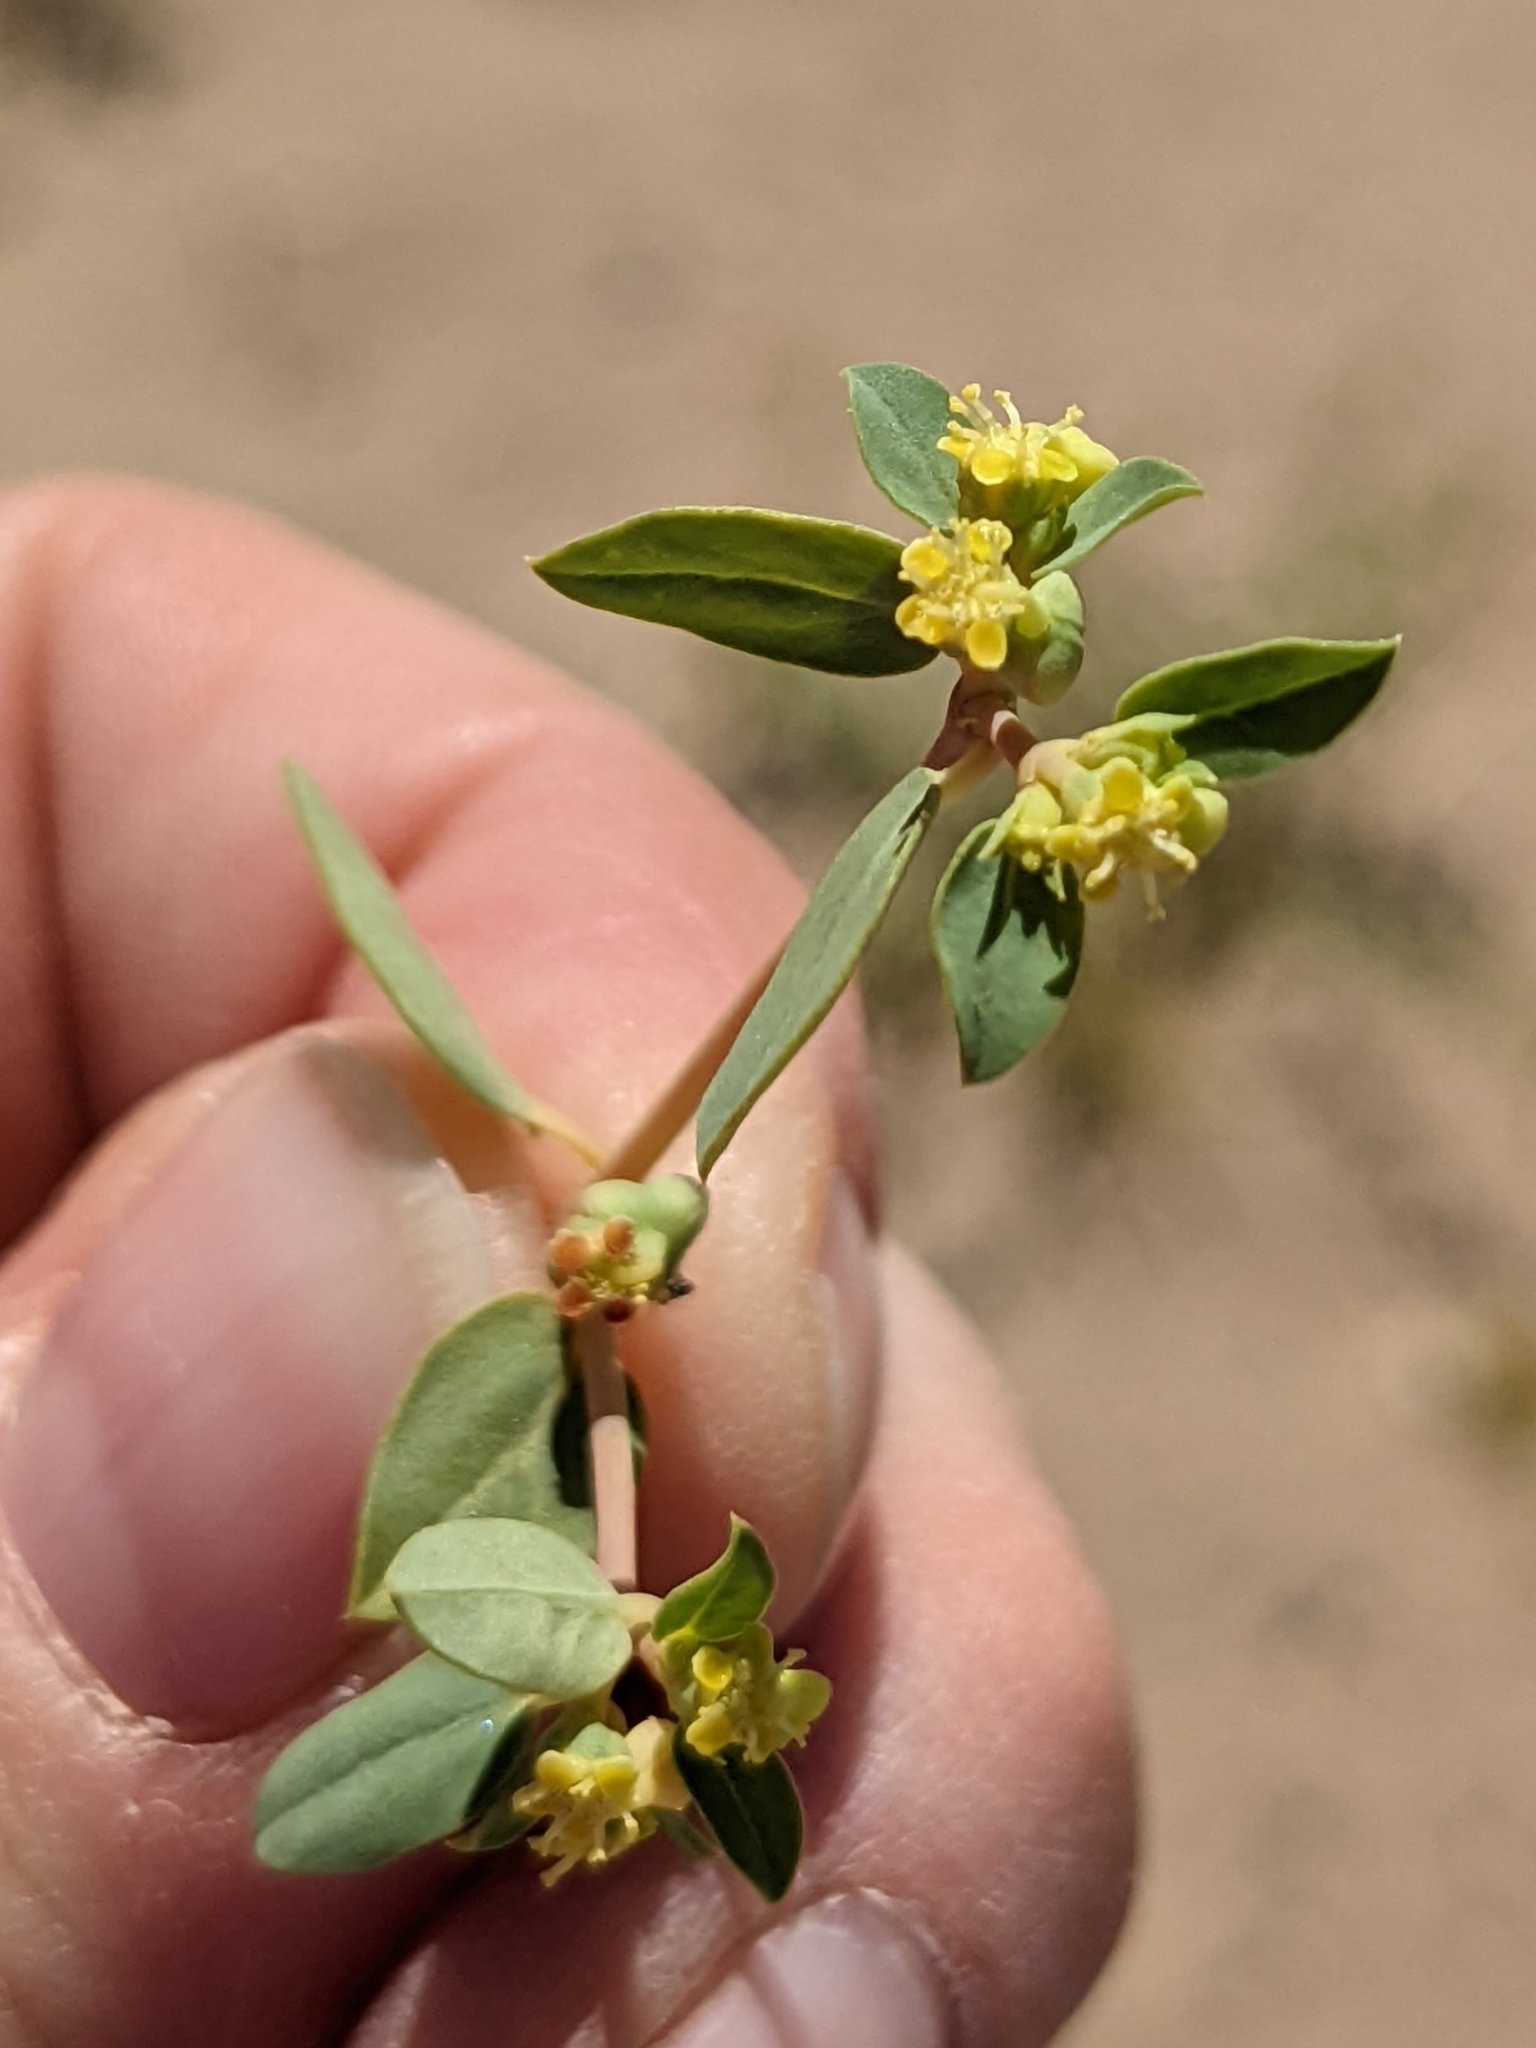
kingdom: Plantae
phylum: Tracheophyta
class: Magnoliopsida
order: Malpighiales
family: Euphorbiaceae
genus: Euphorbia
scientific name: Euphorbia ocellata
